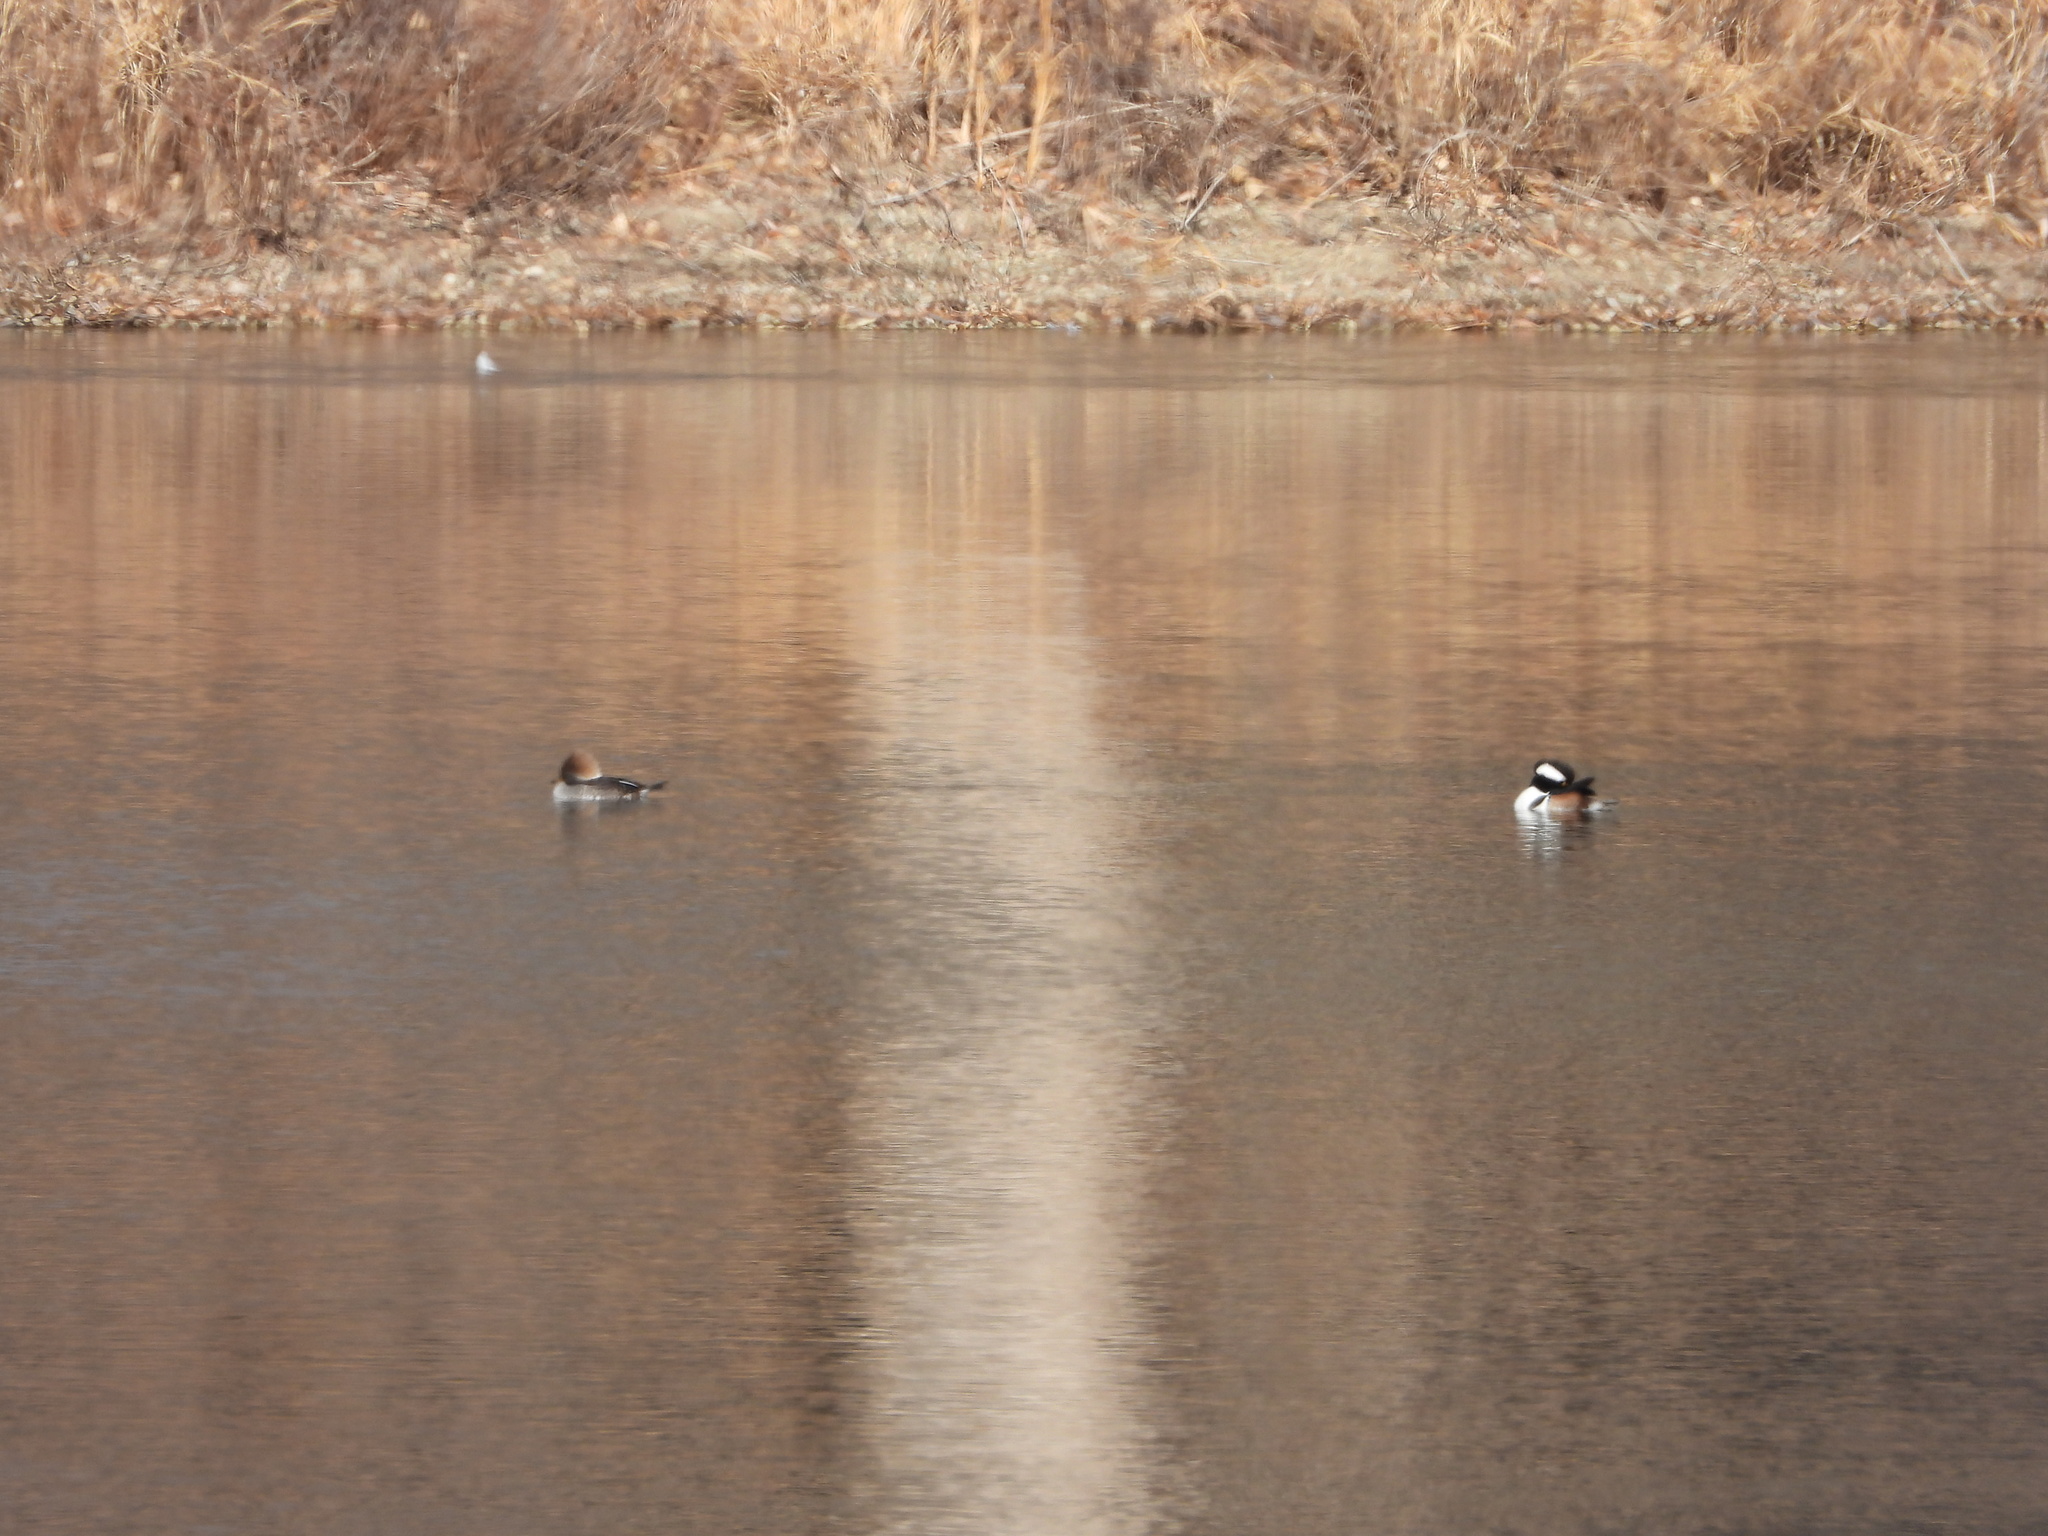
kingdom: Animalia
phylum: Chordata
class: Aves
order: Anseriformes
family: Anatidae
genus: Lophodytes
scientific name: Lophodytes cucullatus
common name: Hooded merganser
